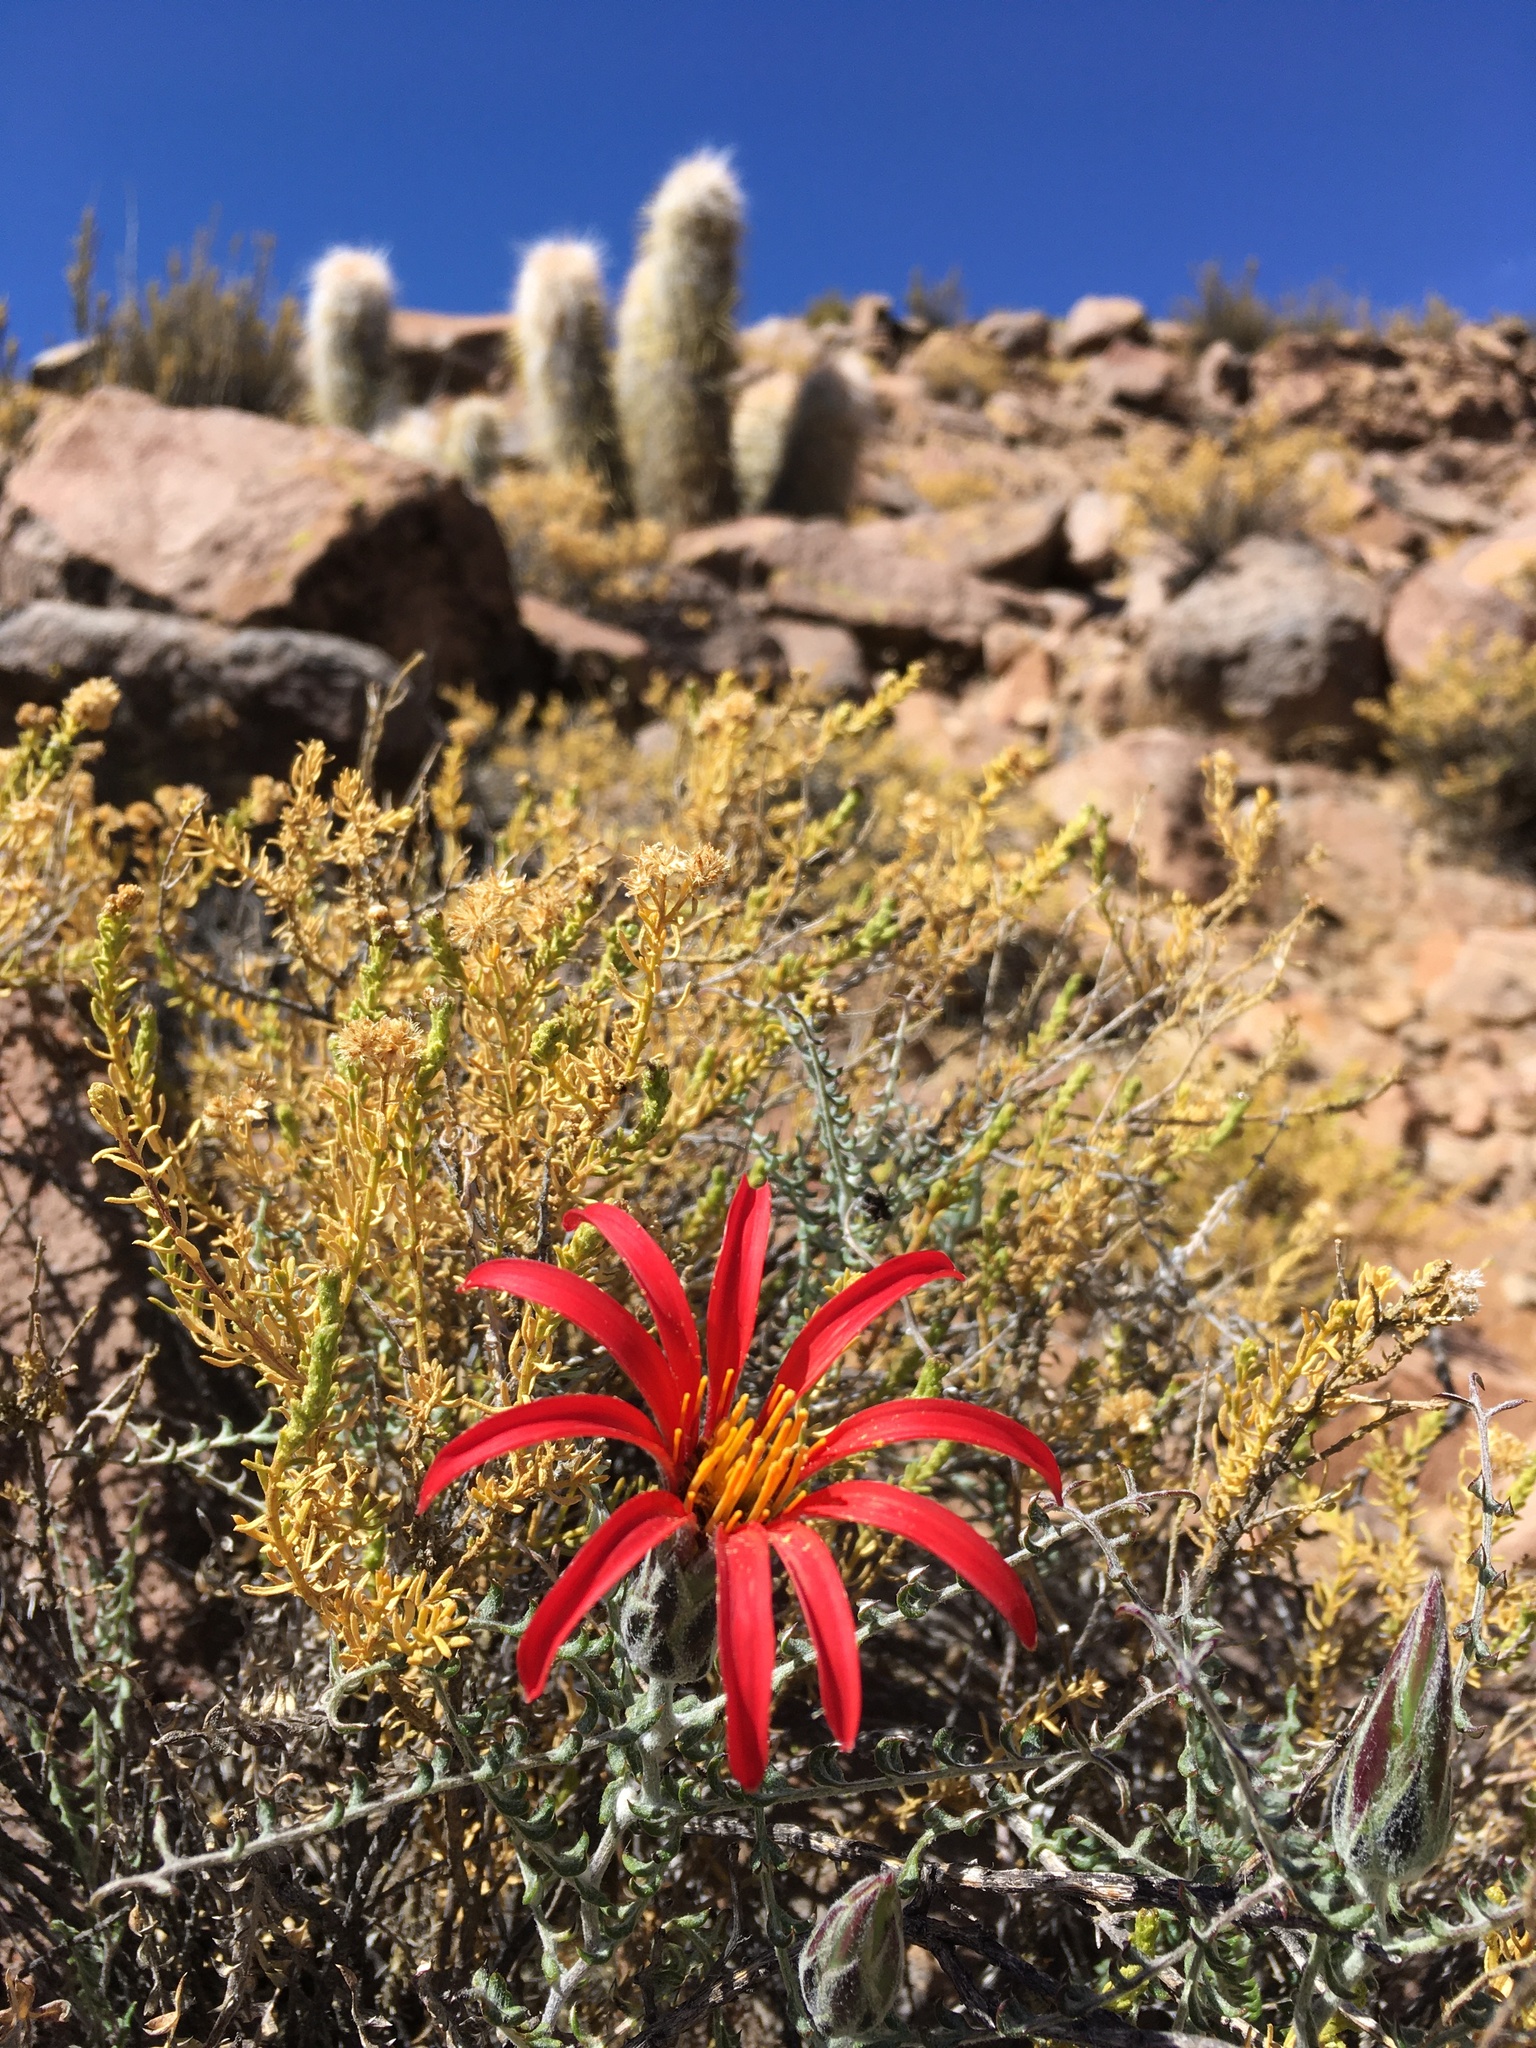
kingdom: Plantae
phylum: Tracheophyta
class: Magnoliopsida
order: Asterales
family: Asteraceae
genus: Mutisia
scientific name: Mutisia hamata
